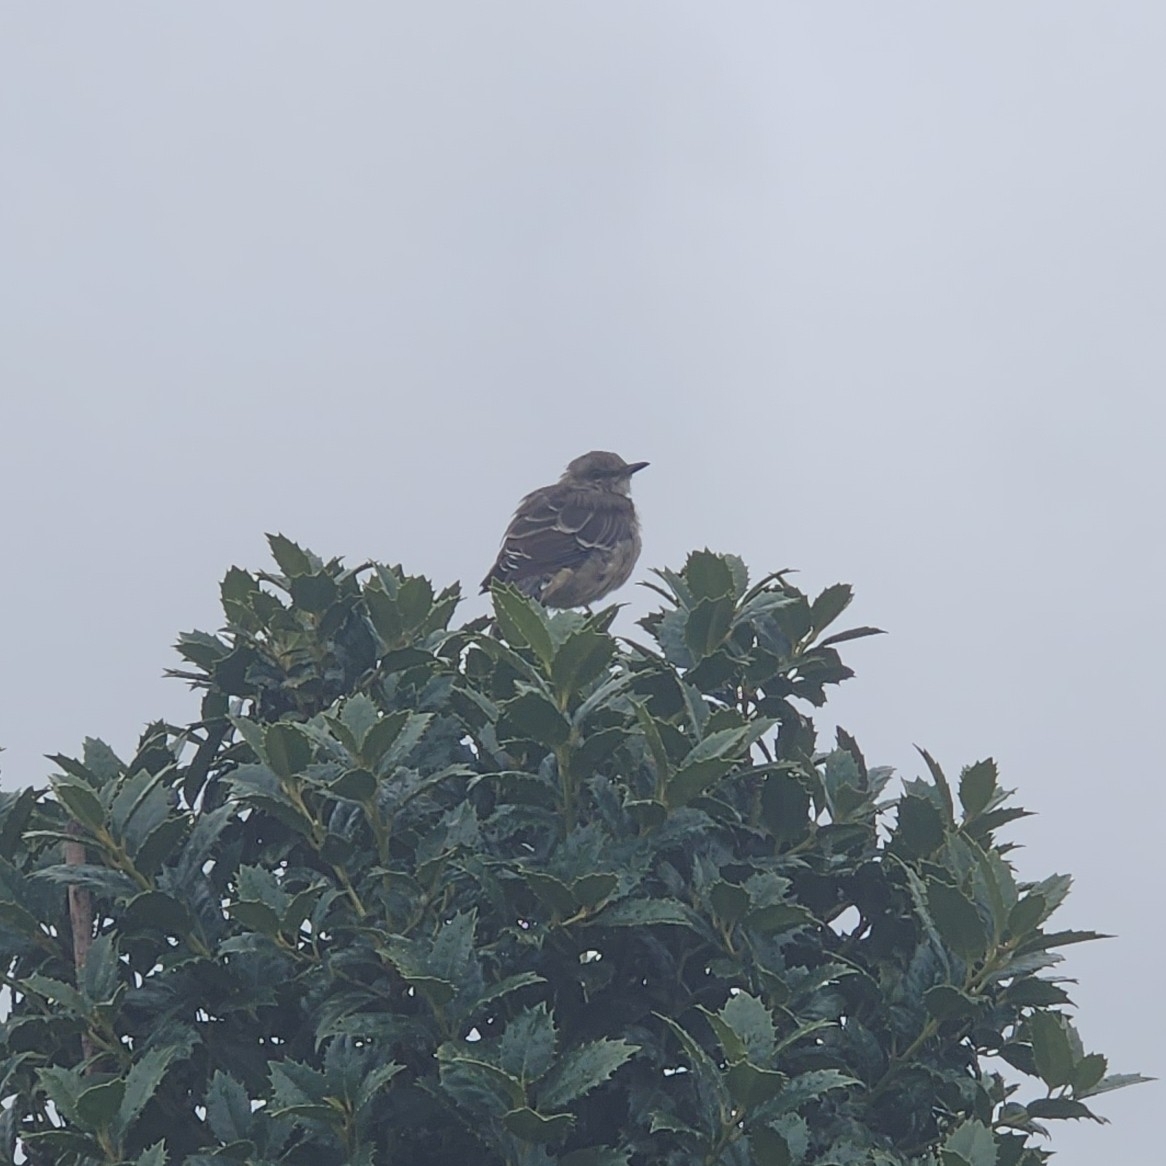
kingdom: Animalia
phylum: Chordata
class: Aves
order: Passeriformes
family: Mimidae
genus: Mimus
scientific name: Mimus polyglottos
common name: Northern mockingbird
